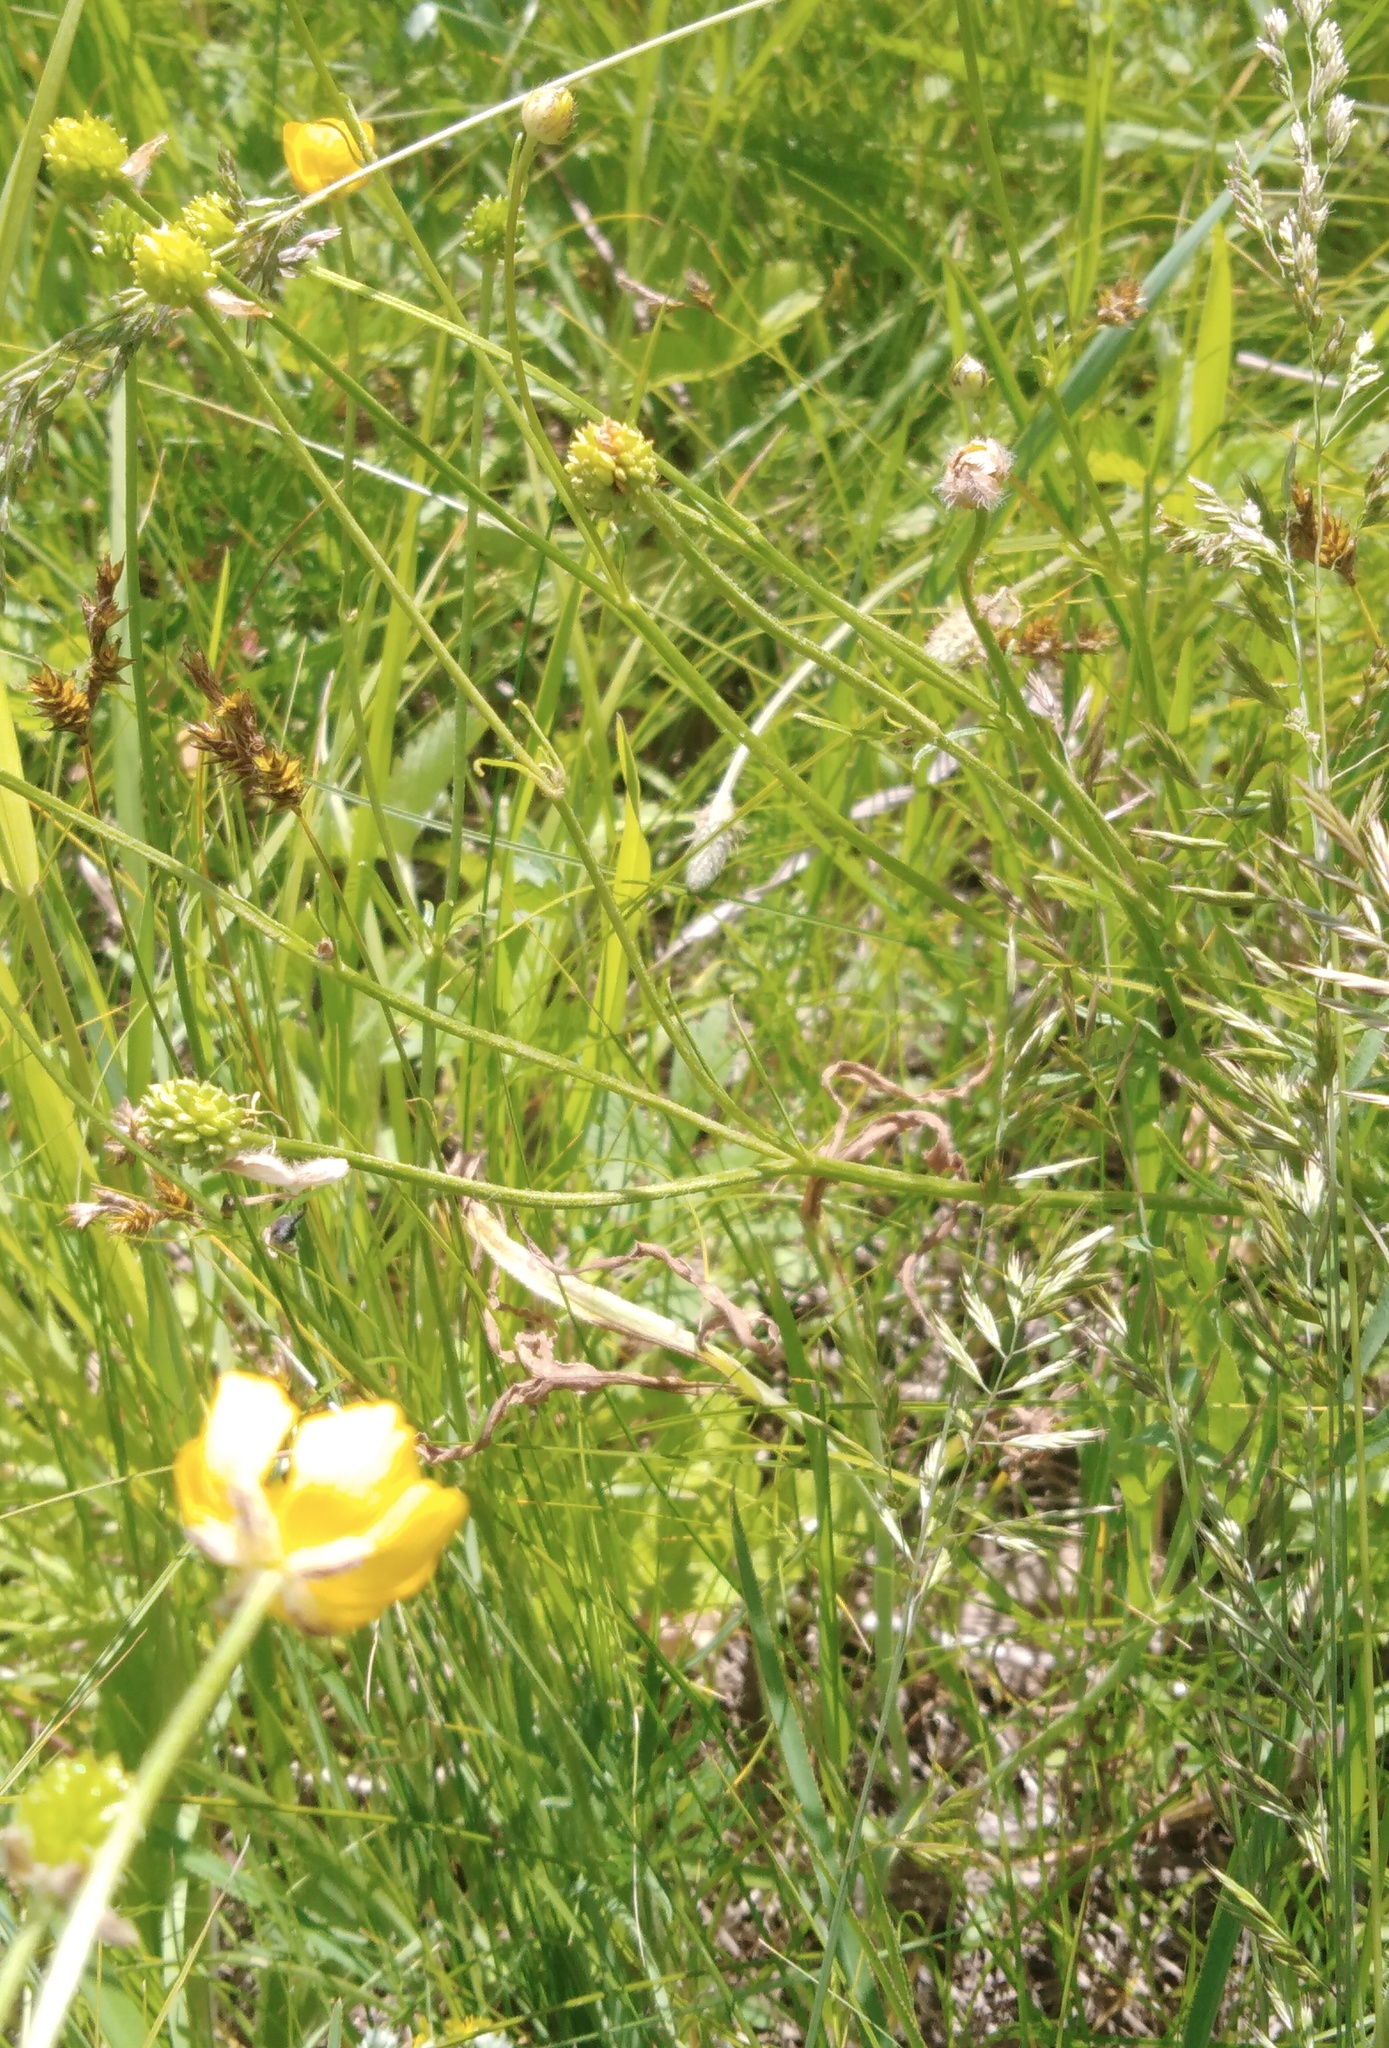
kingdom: Plantae
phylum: Tracheophyta
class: Magnoliopsida
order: Ranunculales
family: Ranunculaceae
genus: Ranunculus
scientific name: Ranunculus polyanthemos
